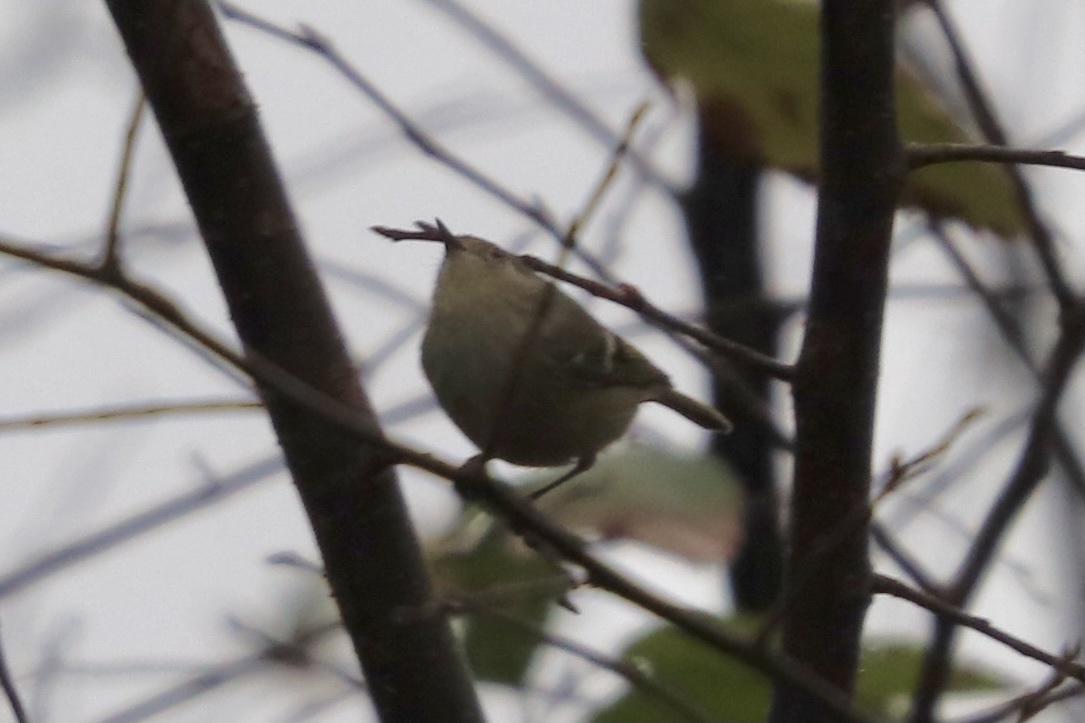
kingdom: Animalia
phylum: Chordata
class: Aves
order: Passeriformes
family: Regulidae
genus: Regulus
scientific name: Regulus calendula
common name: Ruby-crowned kinglet
